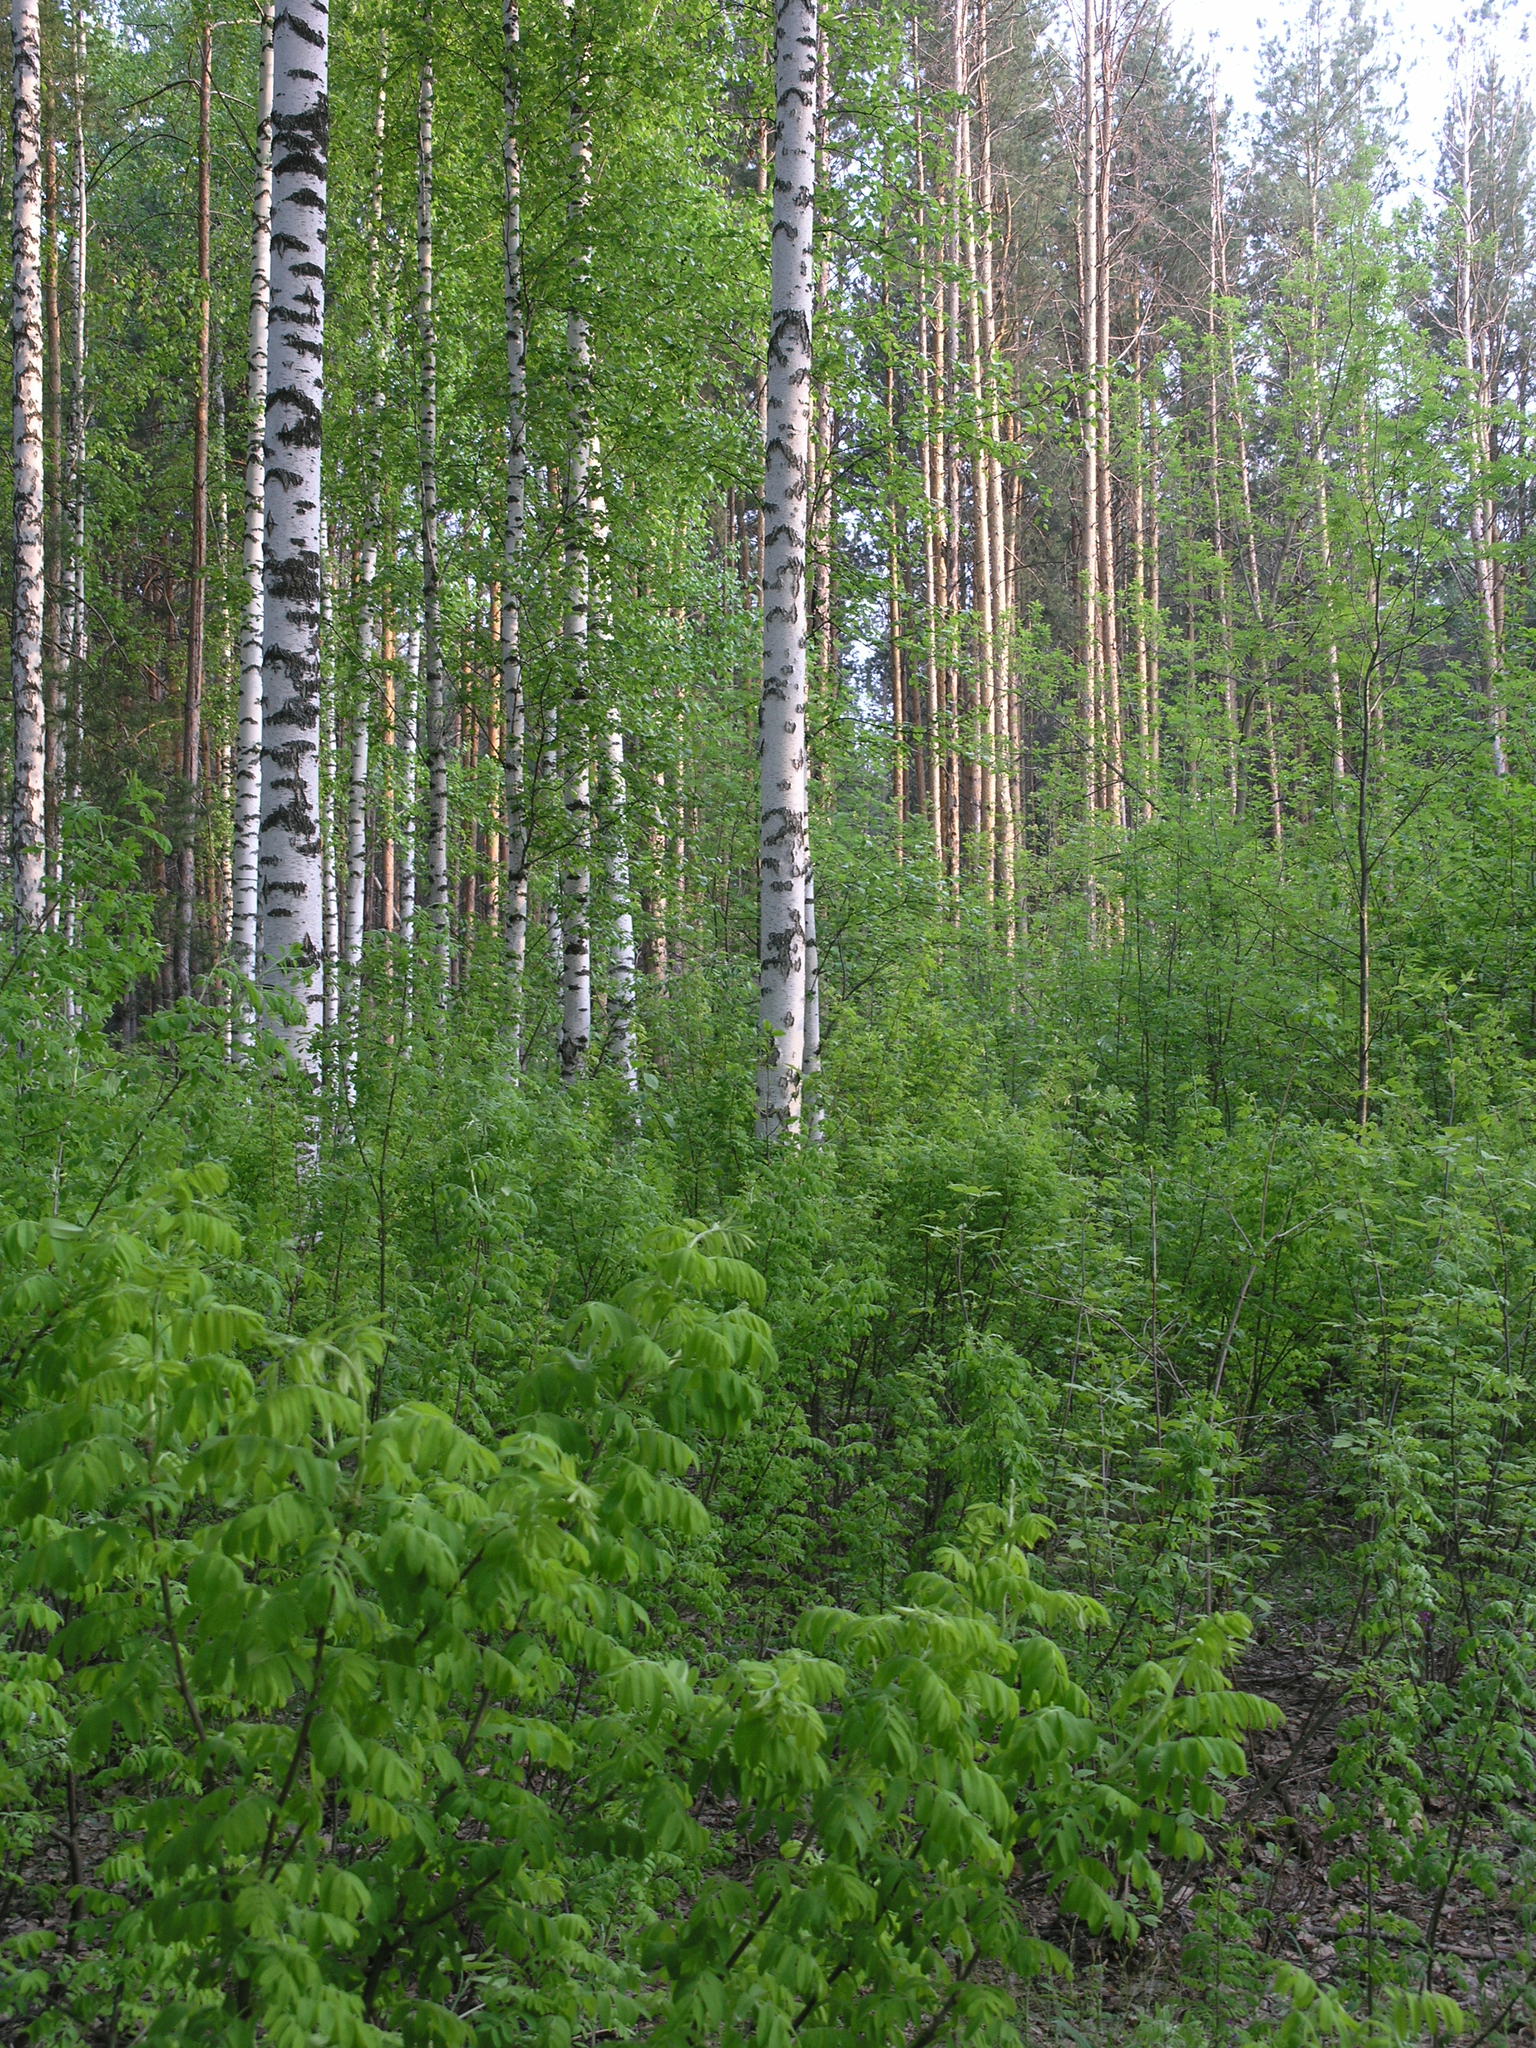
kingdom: Plantae
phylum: Tracheophyta
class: Magnoliopsida
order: Fabales
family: Fabaceae
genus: Caragana
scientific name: Caragana arborescens
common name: Siberian peashrub
